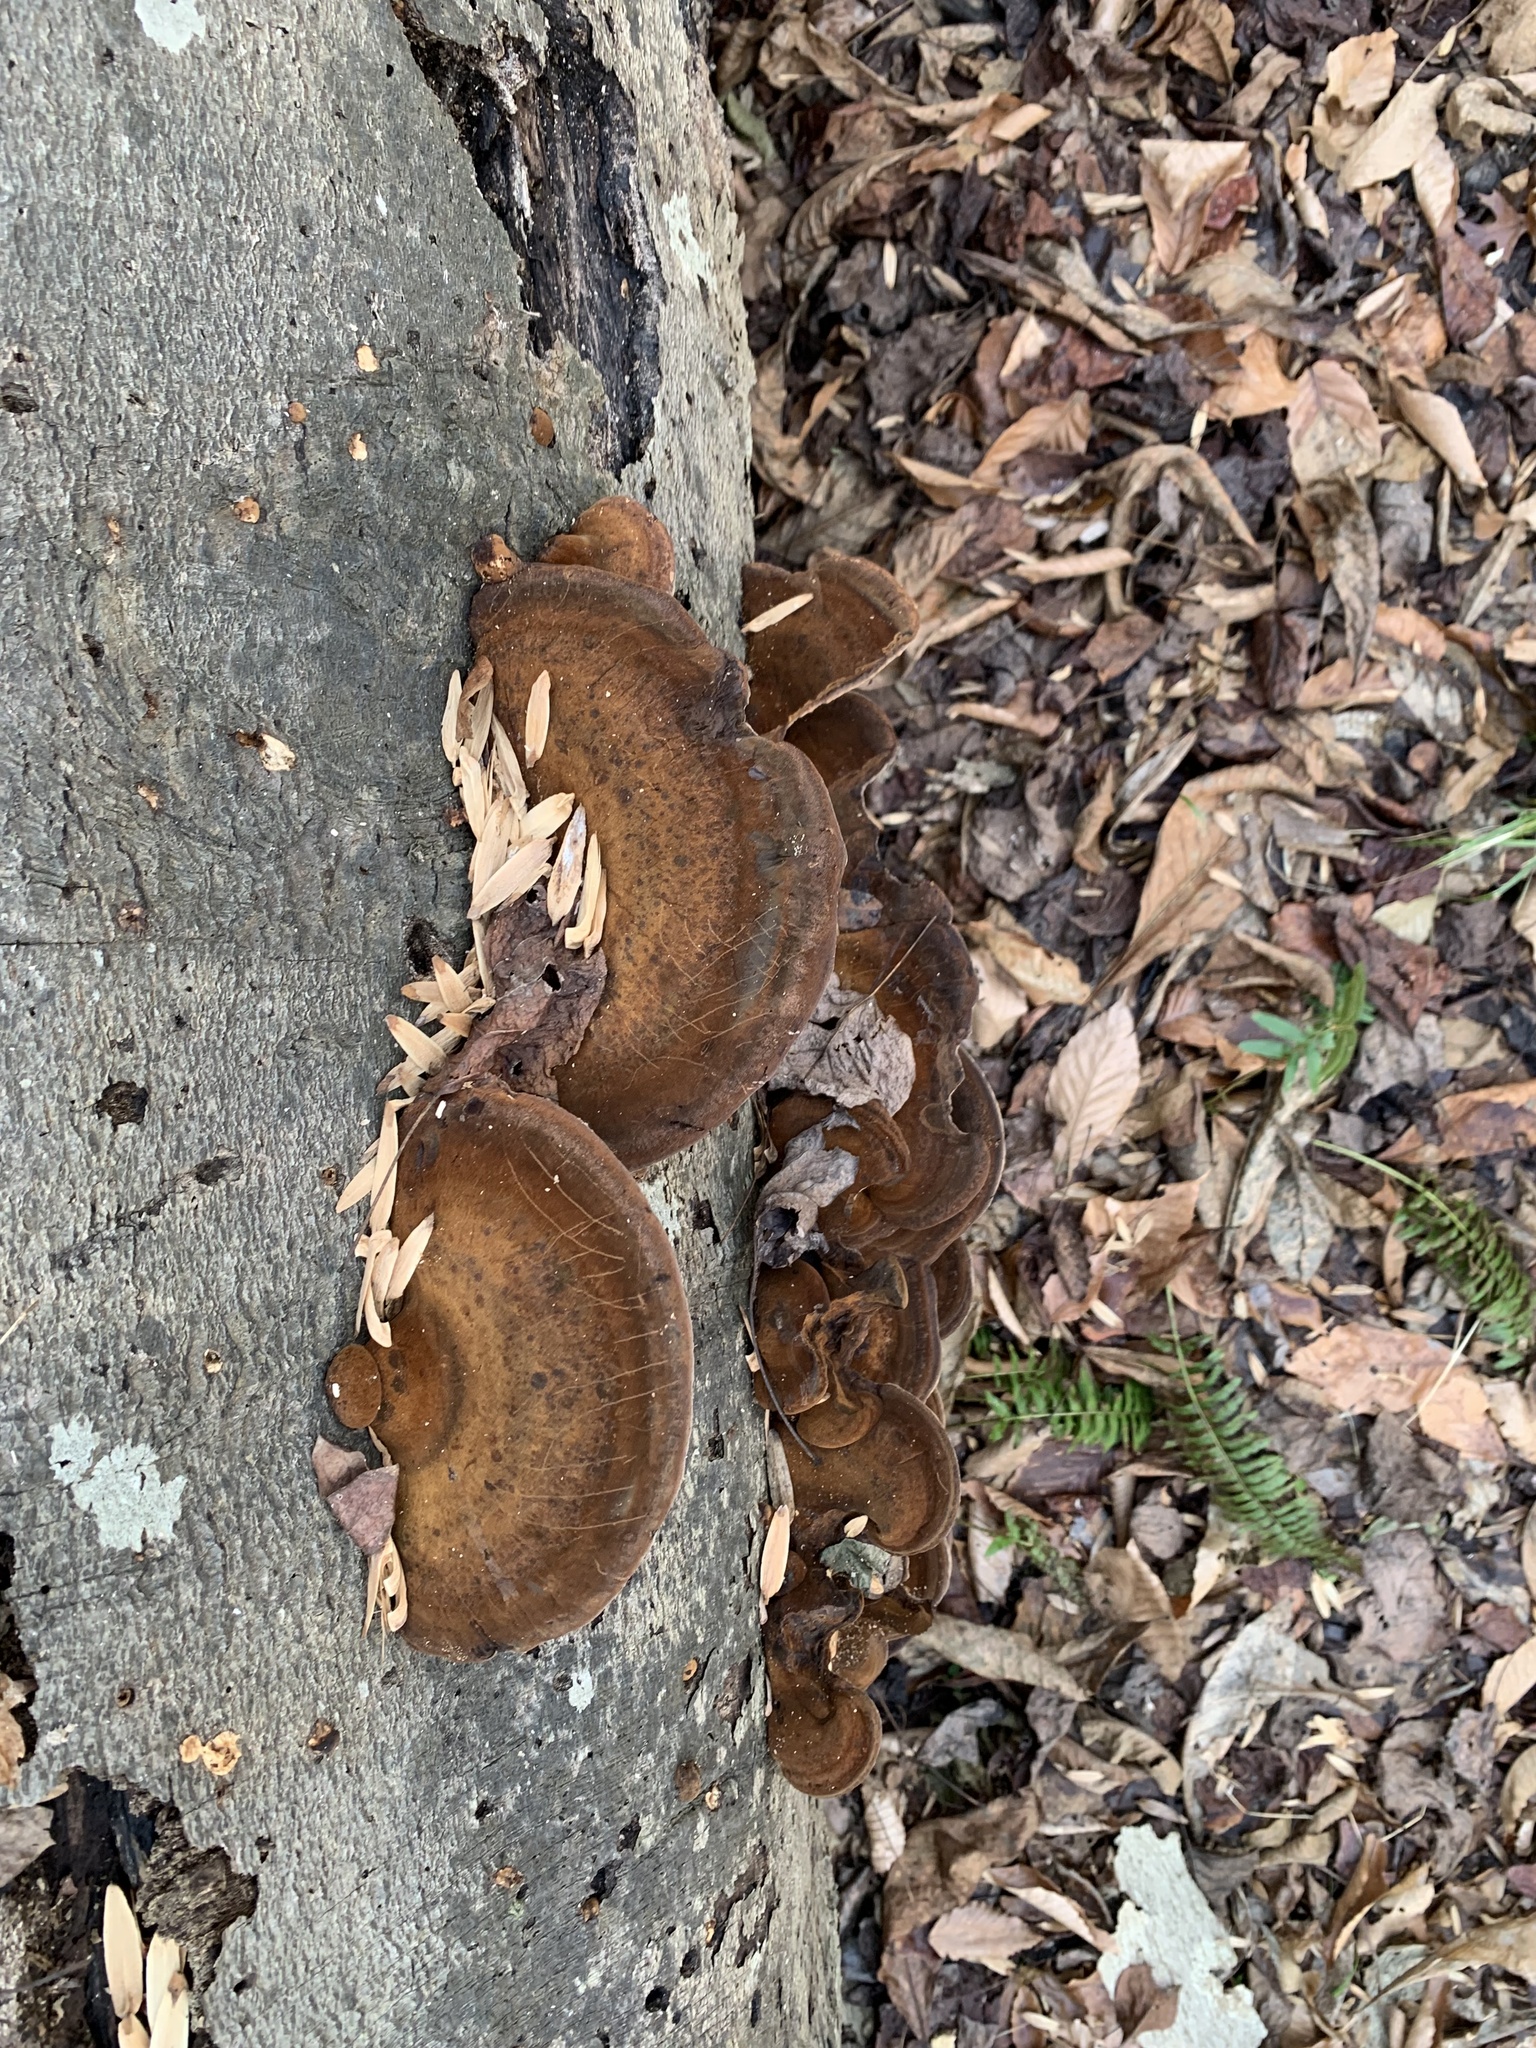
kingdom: Fungi
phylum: Basidiomycota
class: Agaricomycetes
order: Polyporales
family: Ischnodermataceae
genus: Ischnoderma
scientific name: Ischnoderma resinosum
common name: Resinous polypore
